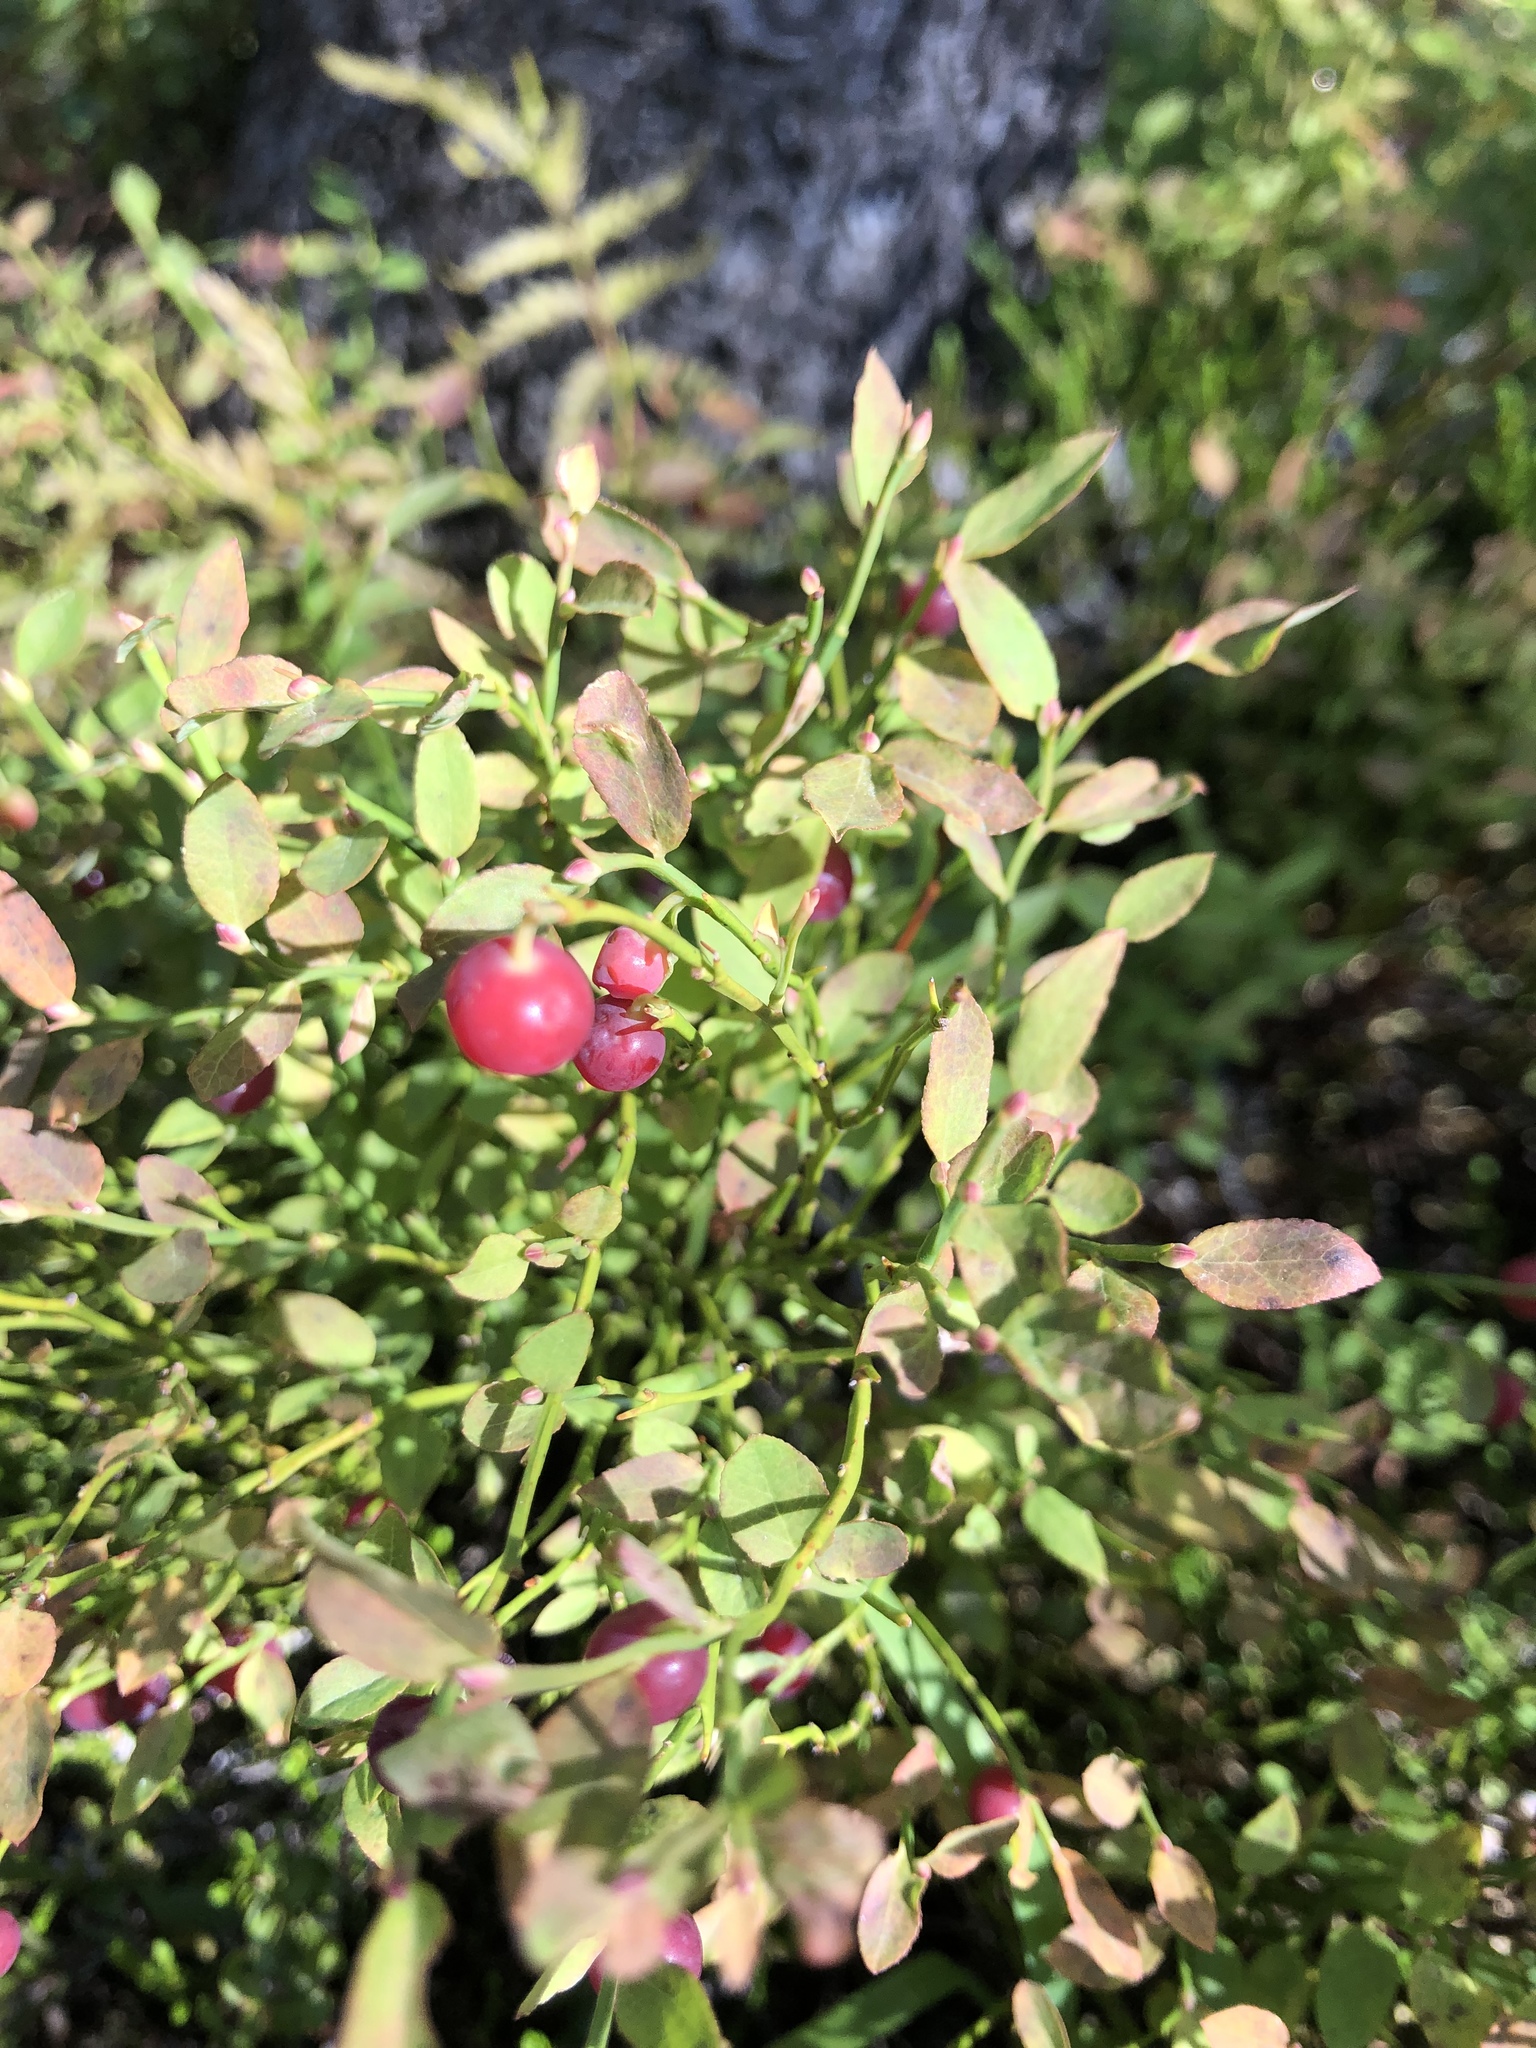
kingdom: Plantae
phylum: Tracheophyta
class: Magnoliopsida
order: Ericales
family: Ericaceae
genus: Vaccinium
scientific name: Vaccinium scoparium
